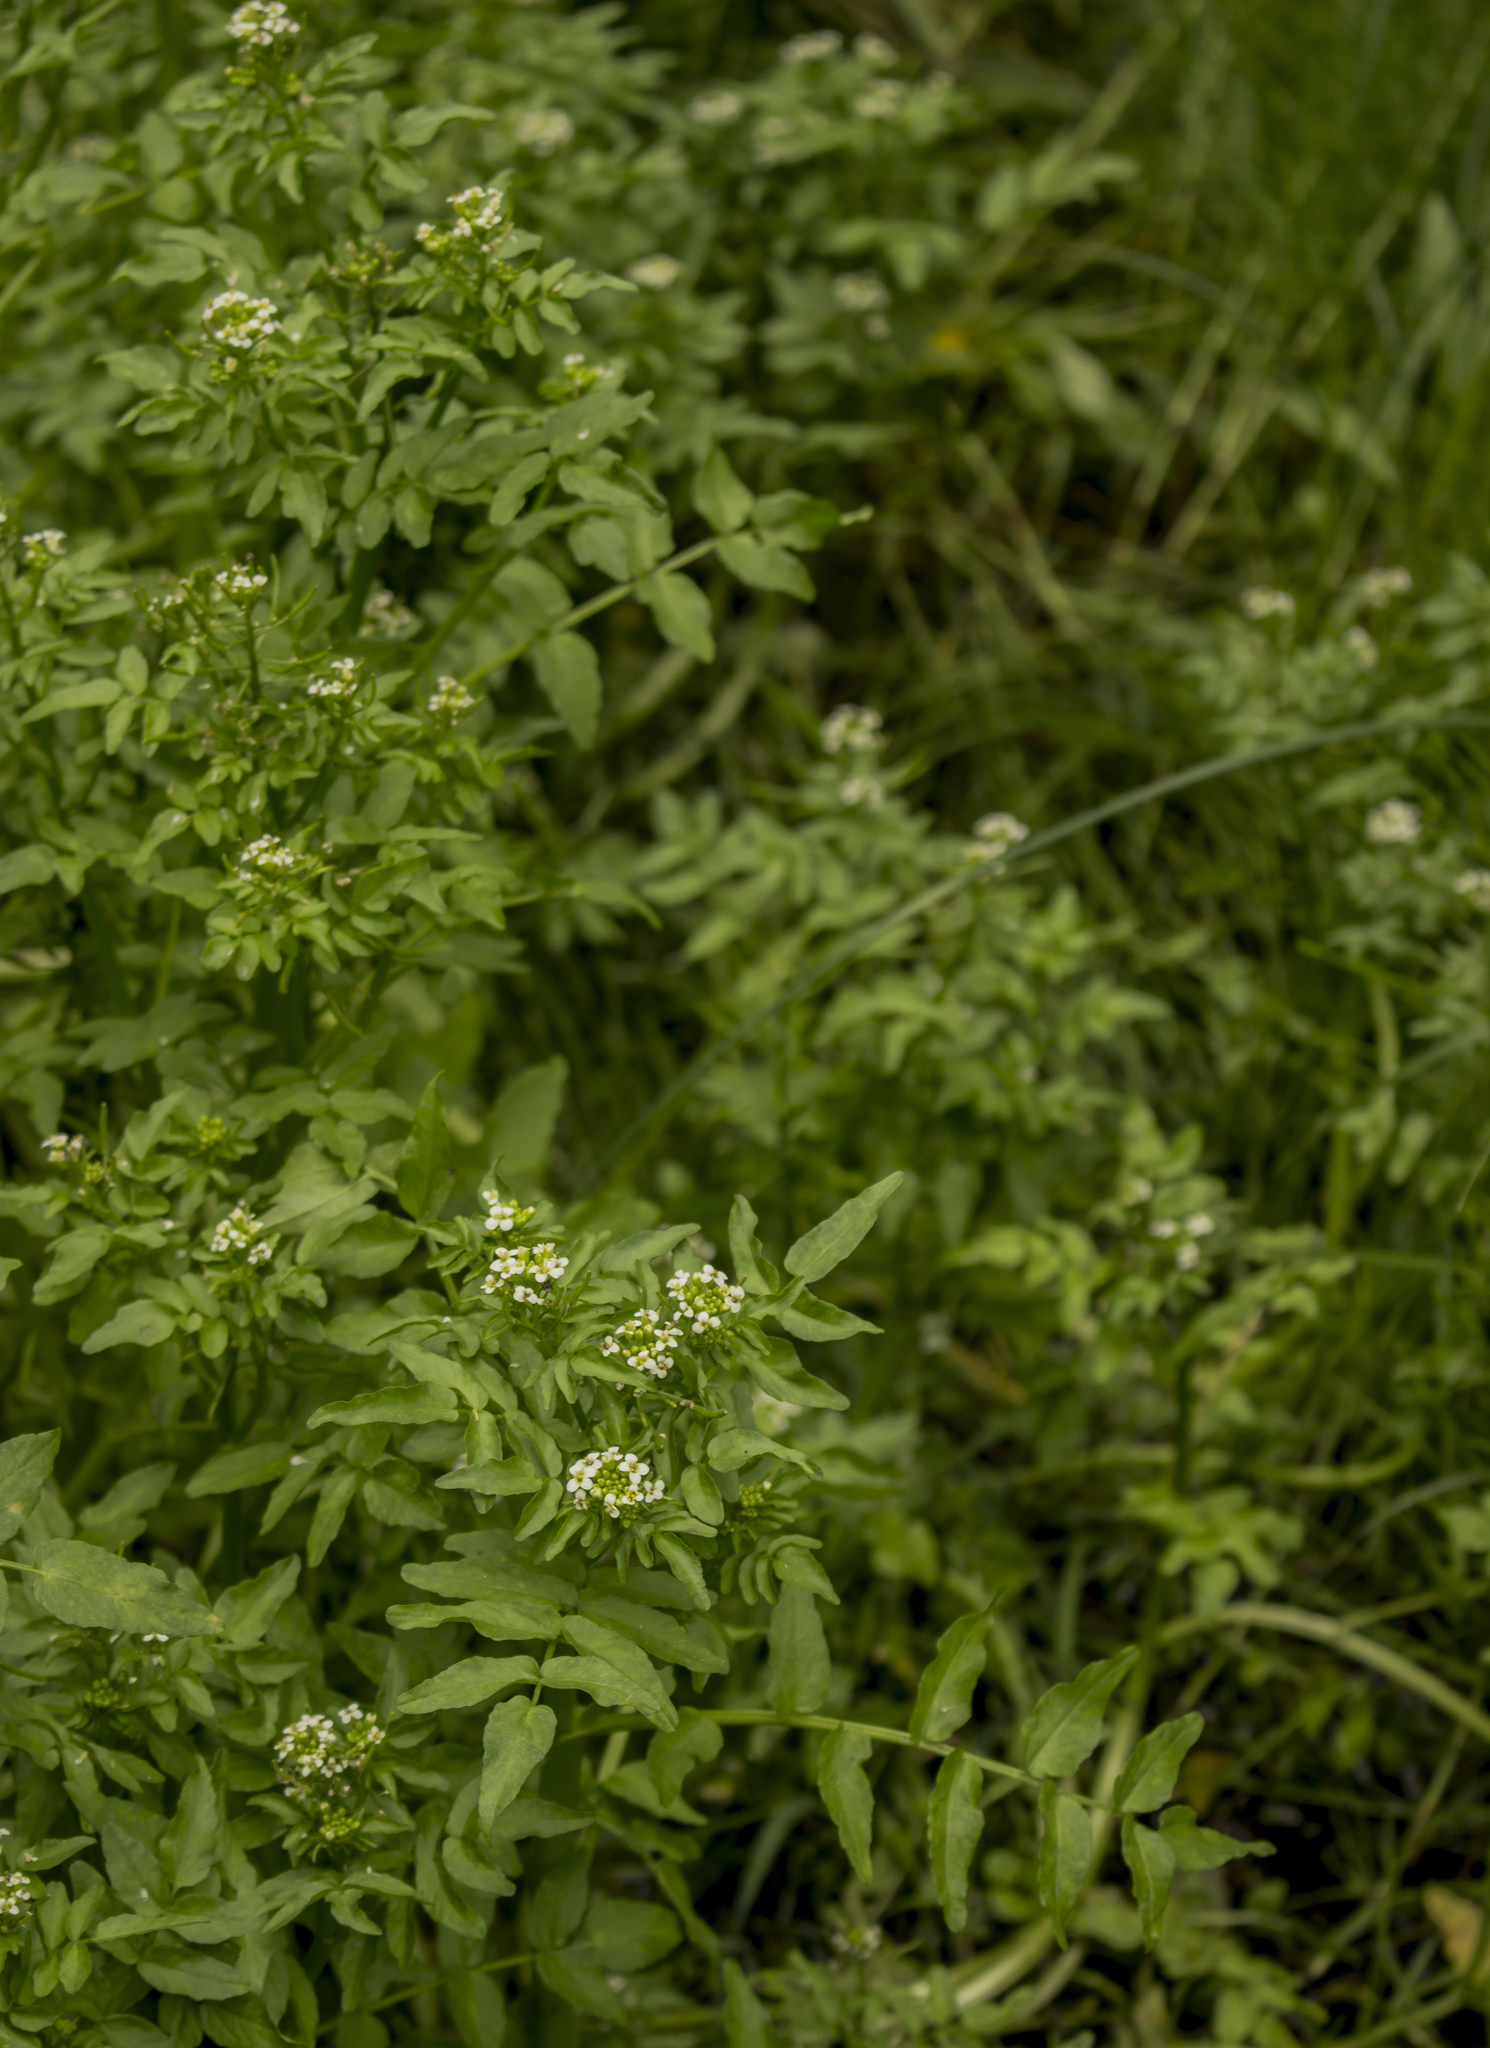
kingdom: Plantae
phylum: Tracheophyta
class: Magnoliopsida
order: Brassicales
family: Brassicaceae
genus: Nasturtium
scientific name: Nasturtium officinale
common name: Watercress
